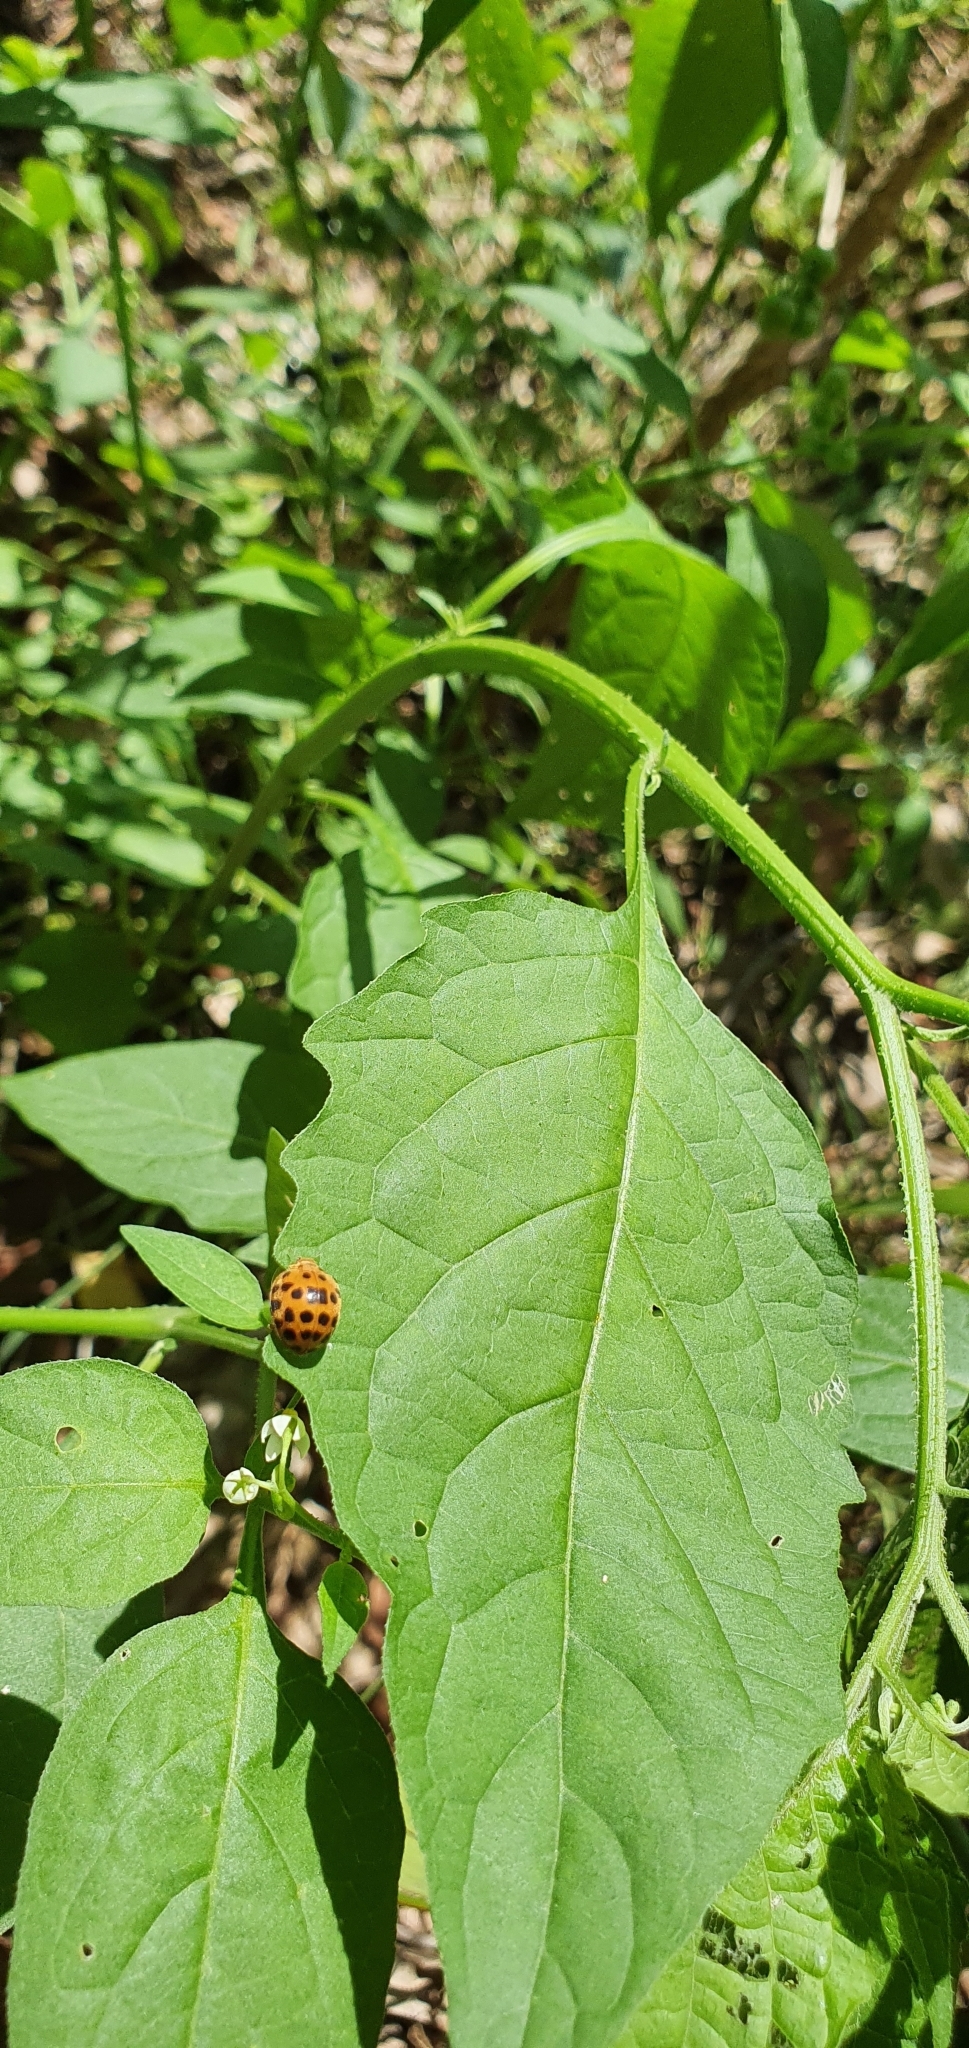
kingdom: Animalia
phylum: Arthropoda
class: Insecta
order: Coleoptera
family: Coccinellidae
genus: Henosepilachna
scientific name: Henosepilachna vigintioctopunctata
